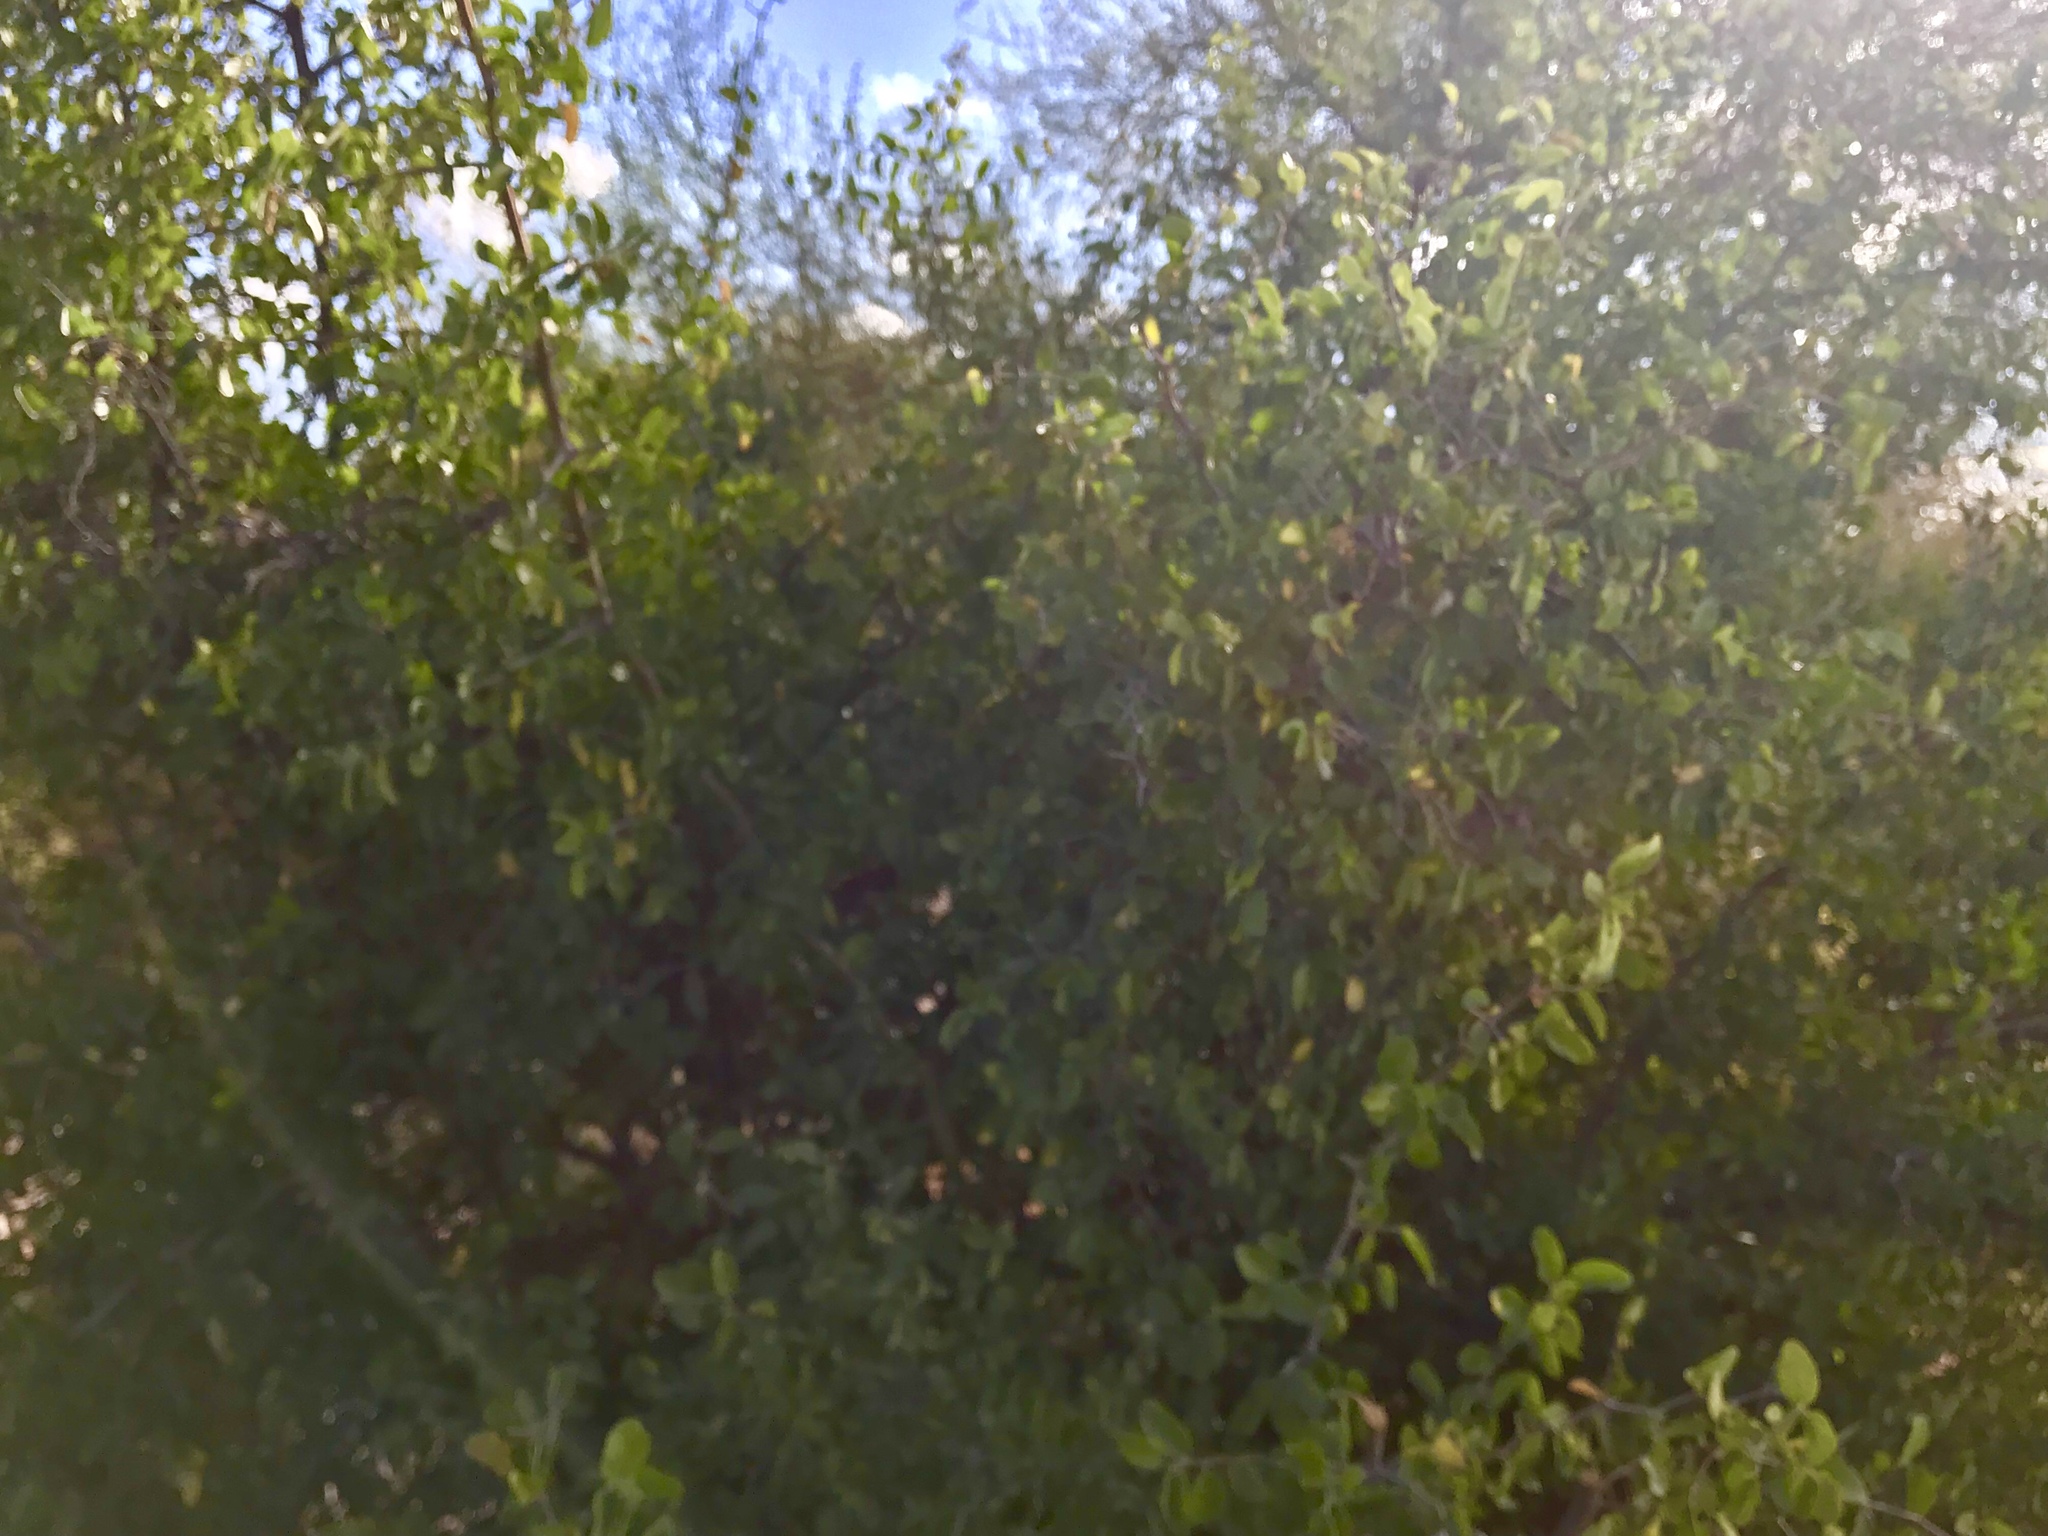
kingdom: Plantae
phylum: Tracheophyta
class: Magnoliopsida
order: Rosales
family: Cannabaceae
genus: Celtis
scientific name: Celtis pallida
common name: Desert hackberry
